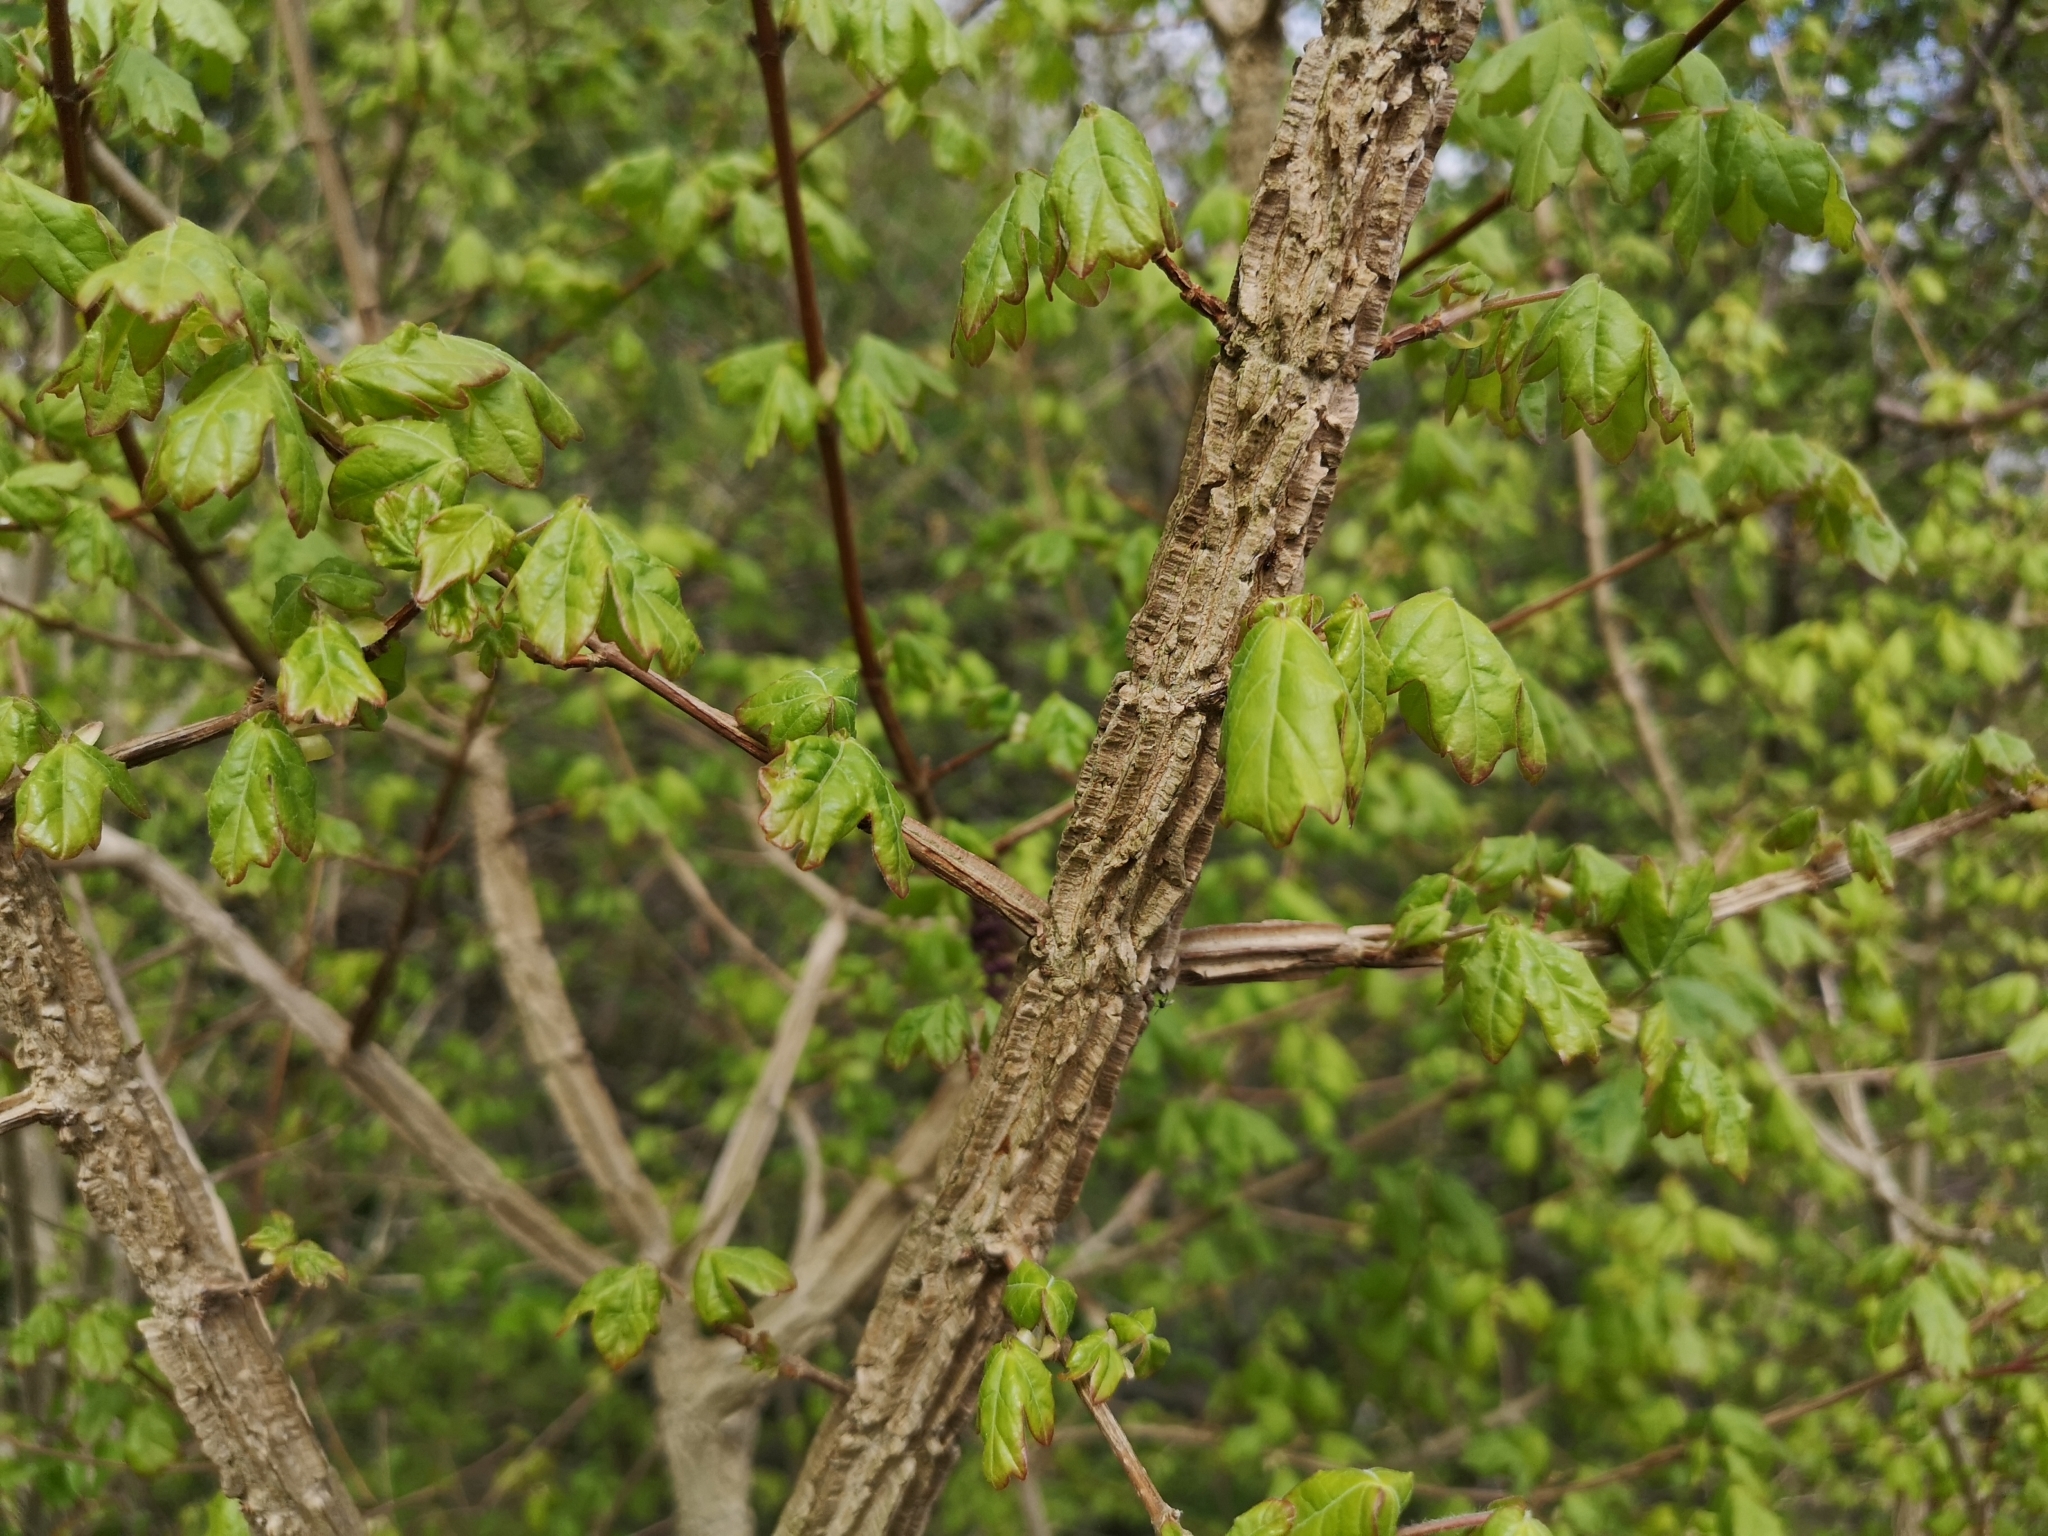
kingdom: Plantae
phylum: Tracheophyta
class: Magnoliopsida
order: Sapindales
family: Sapindaceae
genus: Acer
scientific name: Acer campestre
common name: Field maple
